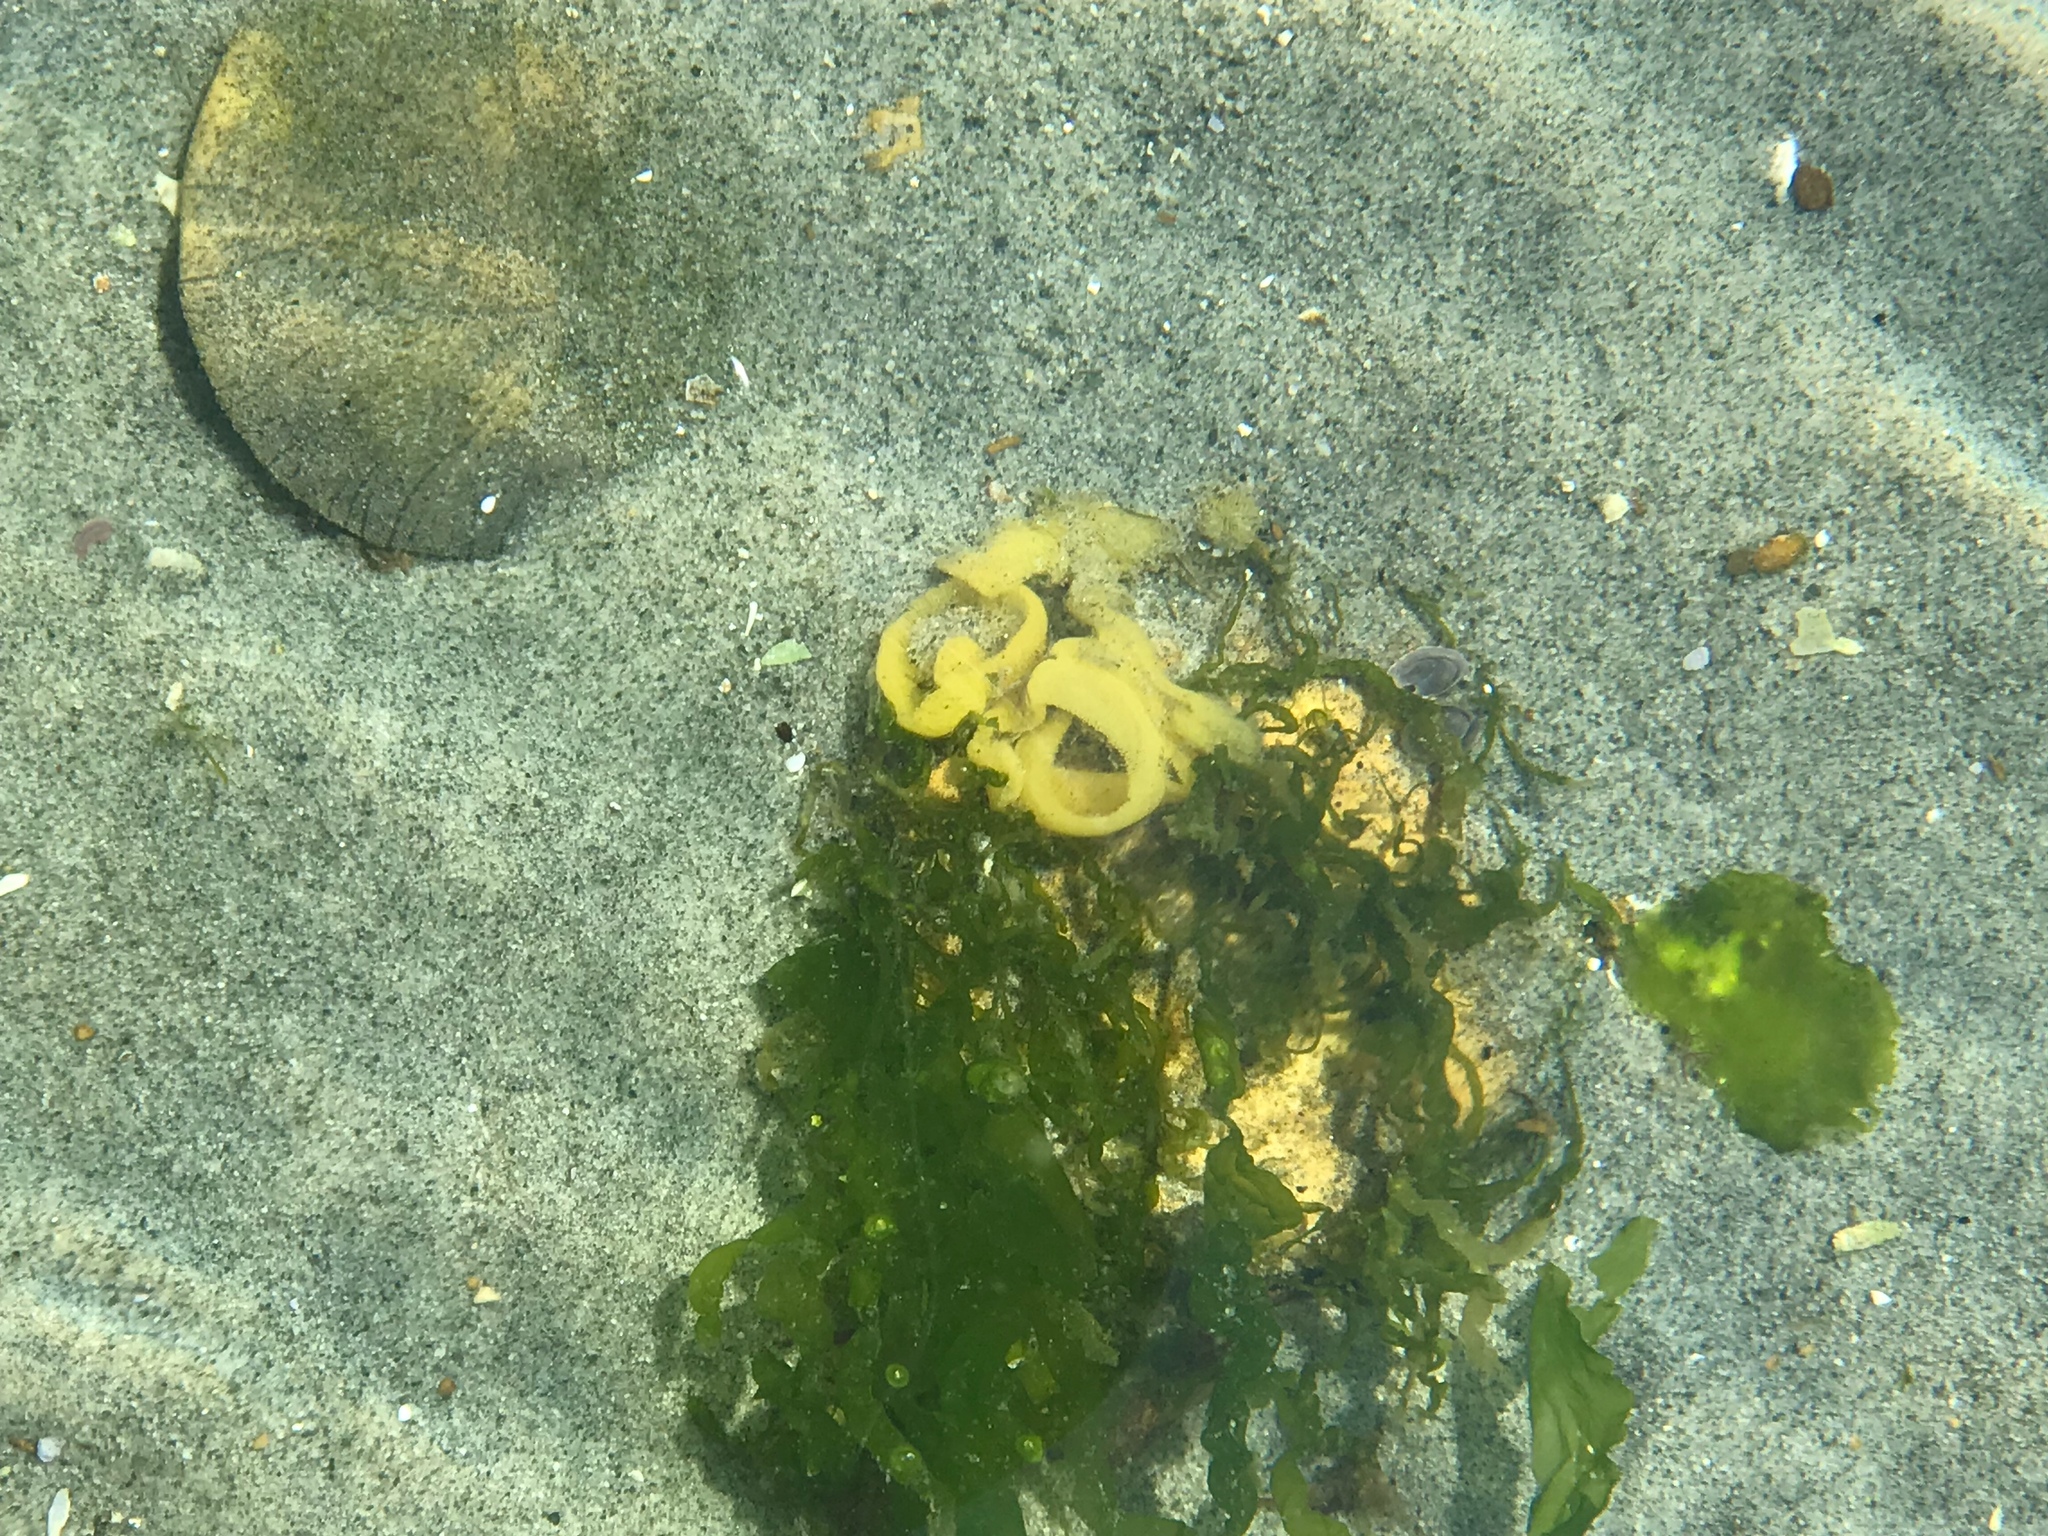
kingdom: Animalia
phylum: Mollusca
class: Gastropoda
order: Cephalaspidea
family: Haminoeidae
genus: Haminoea
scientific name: Haminoea vesicula
